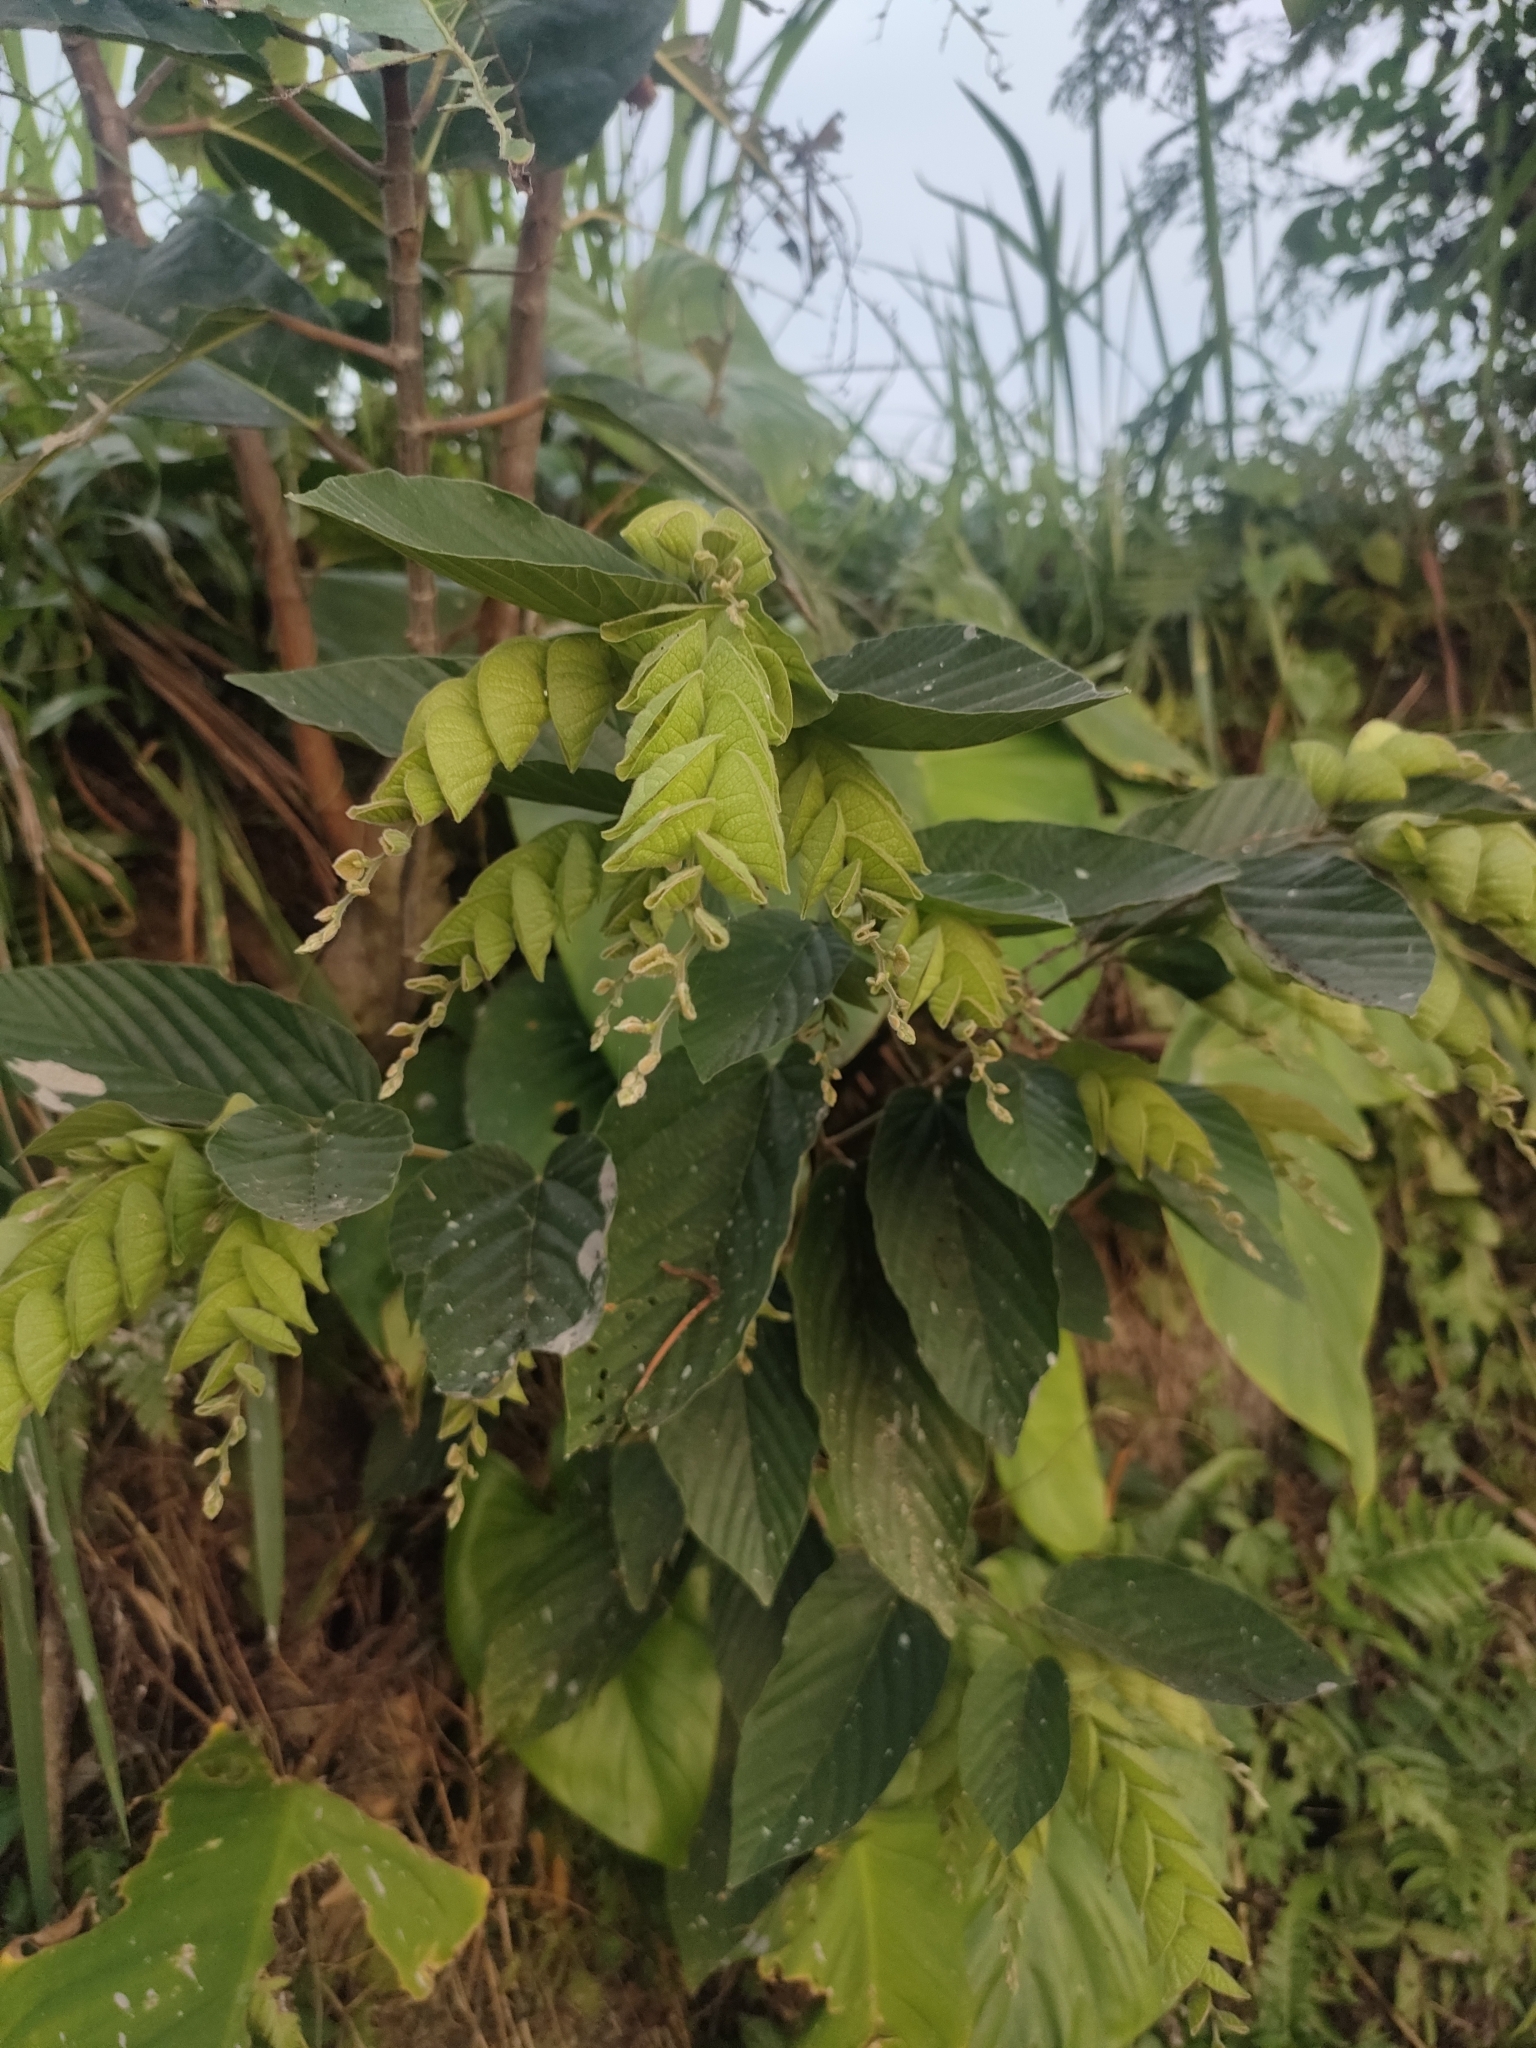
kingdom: Plantae
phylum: Tracheophyta
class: Magnoliopsida
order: Fabales
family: Fabaceae
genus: Flemingia
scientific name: Flemingia strobilifera
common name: Wild hops
